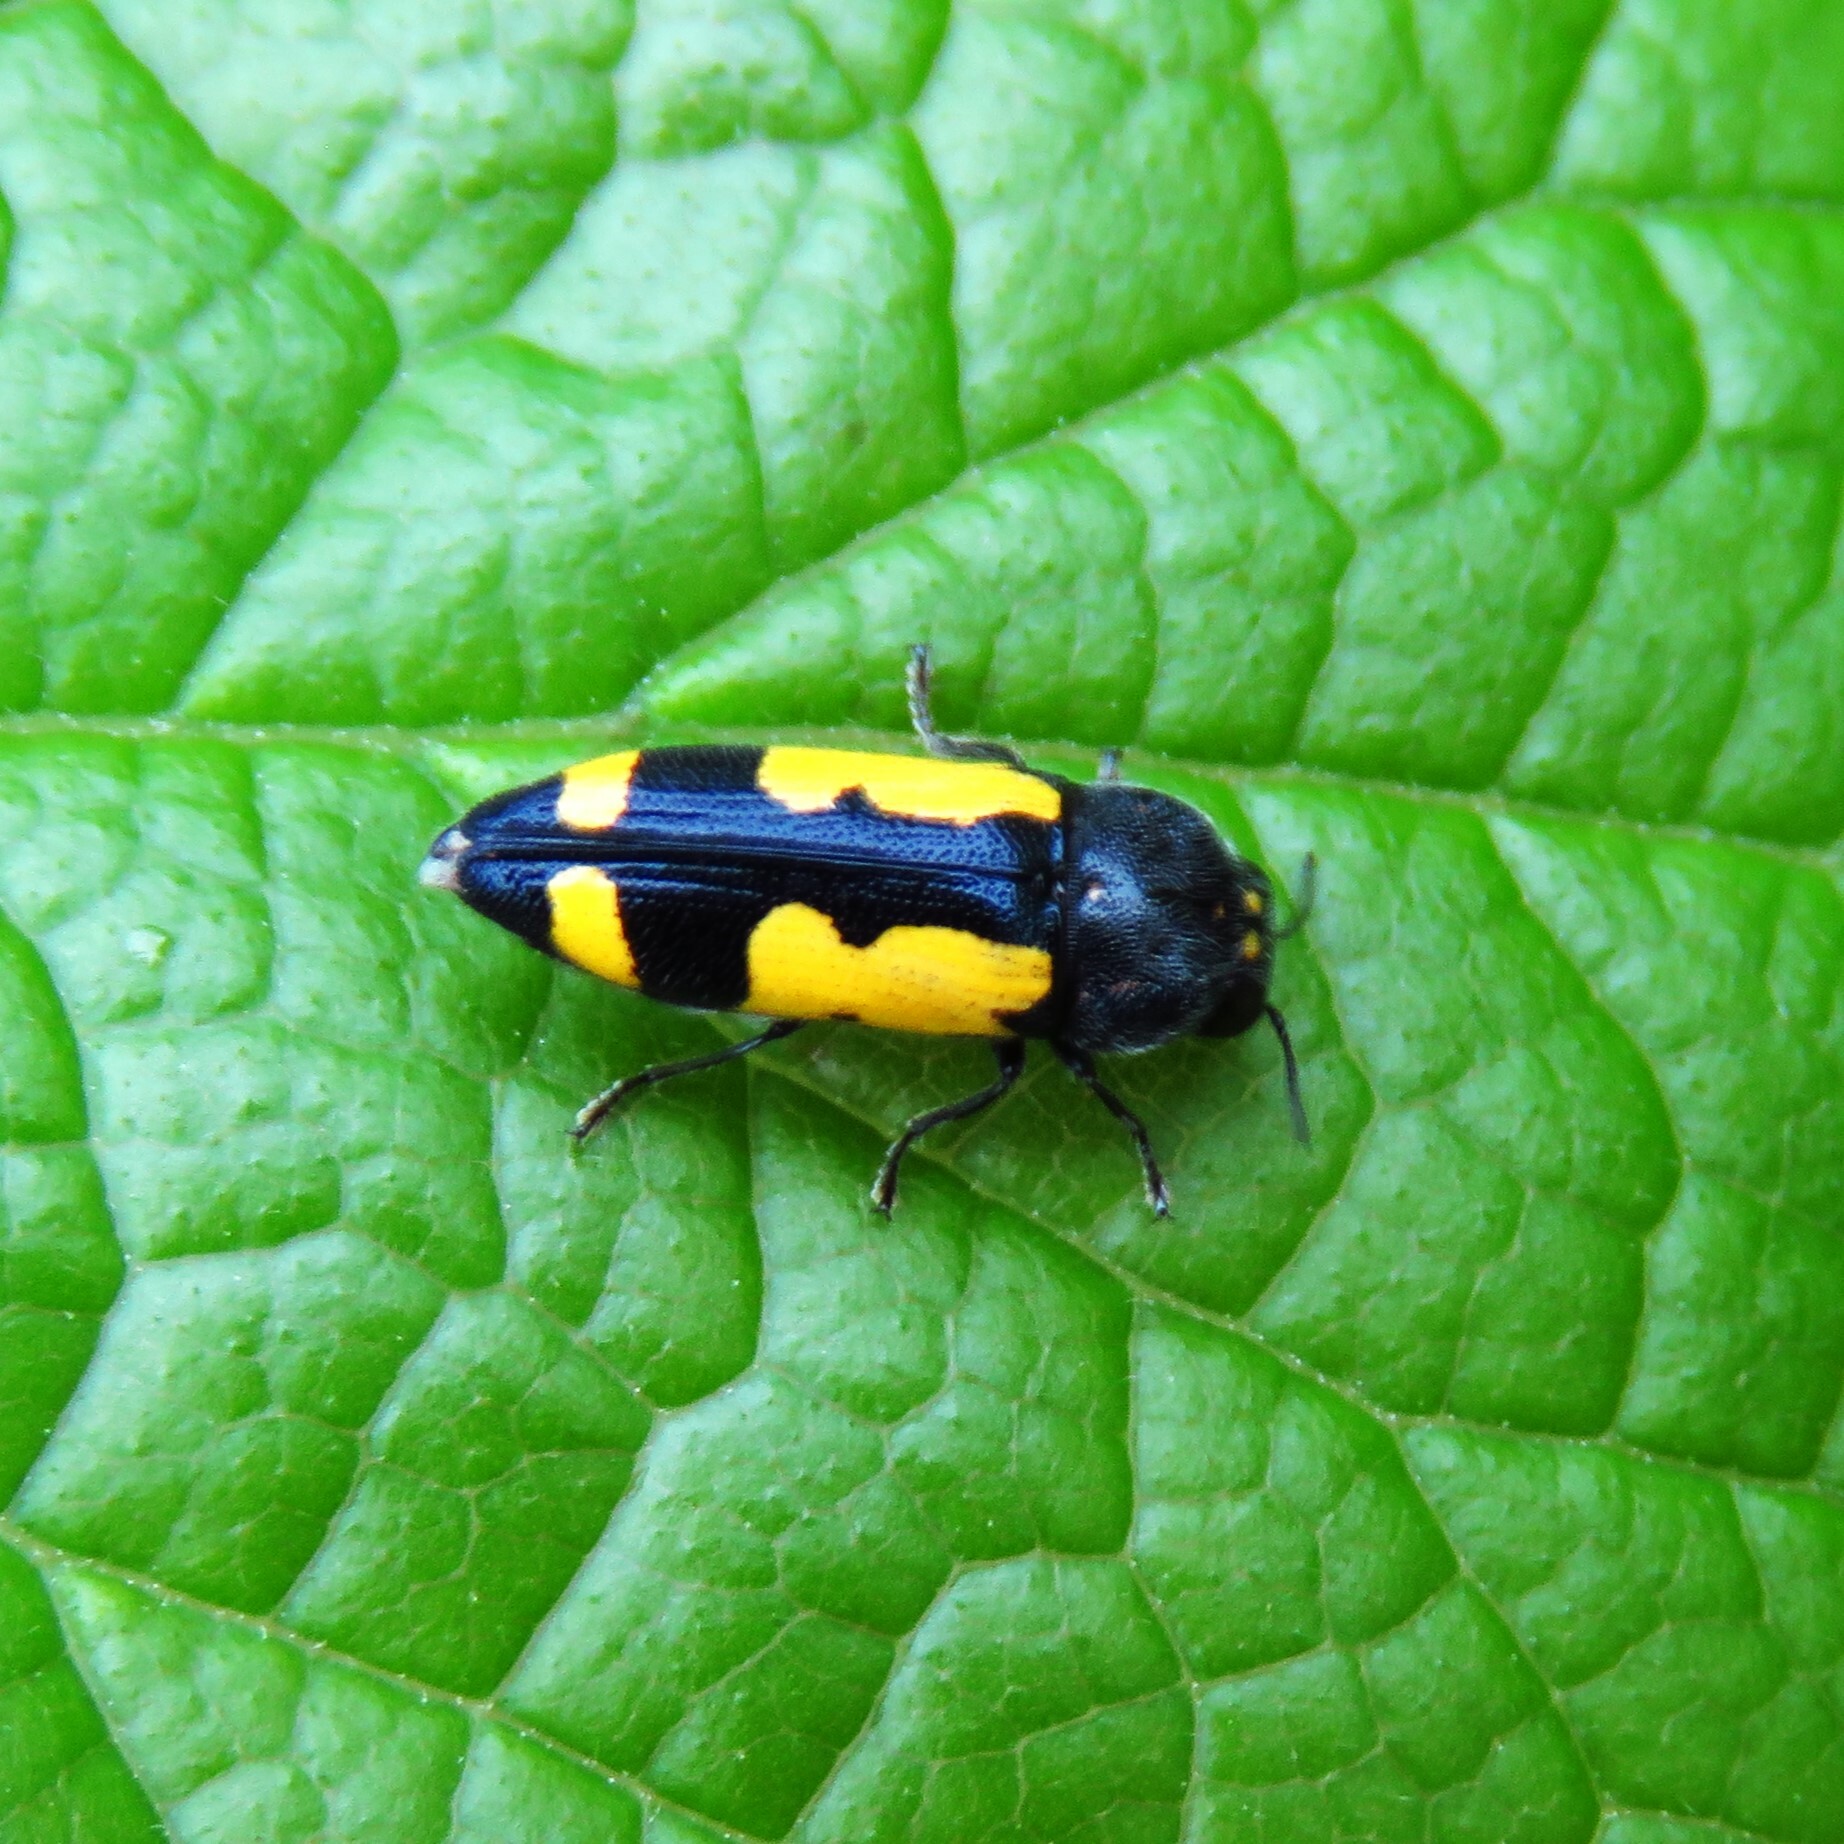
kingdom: Animalia
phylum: Arthropoda
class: Insecta
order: Coleoptera
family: Buprestidae
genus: Ptosima
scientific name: Ptosima gibbicollis
